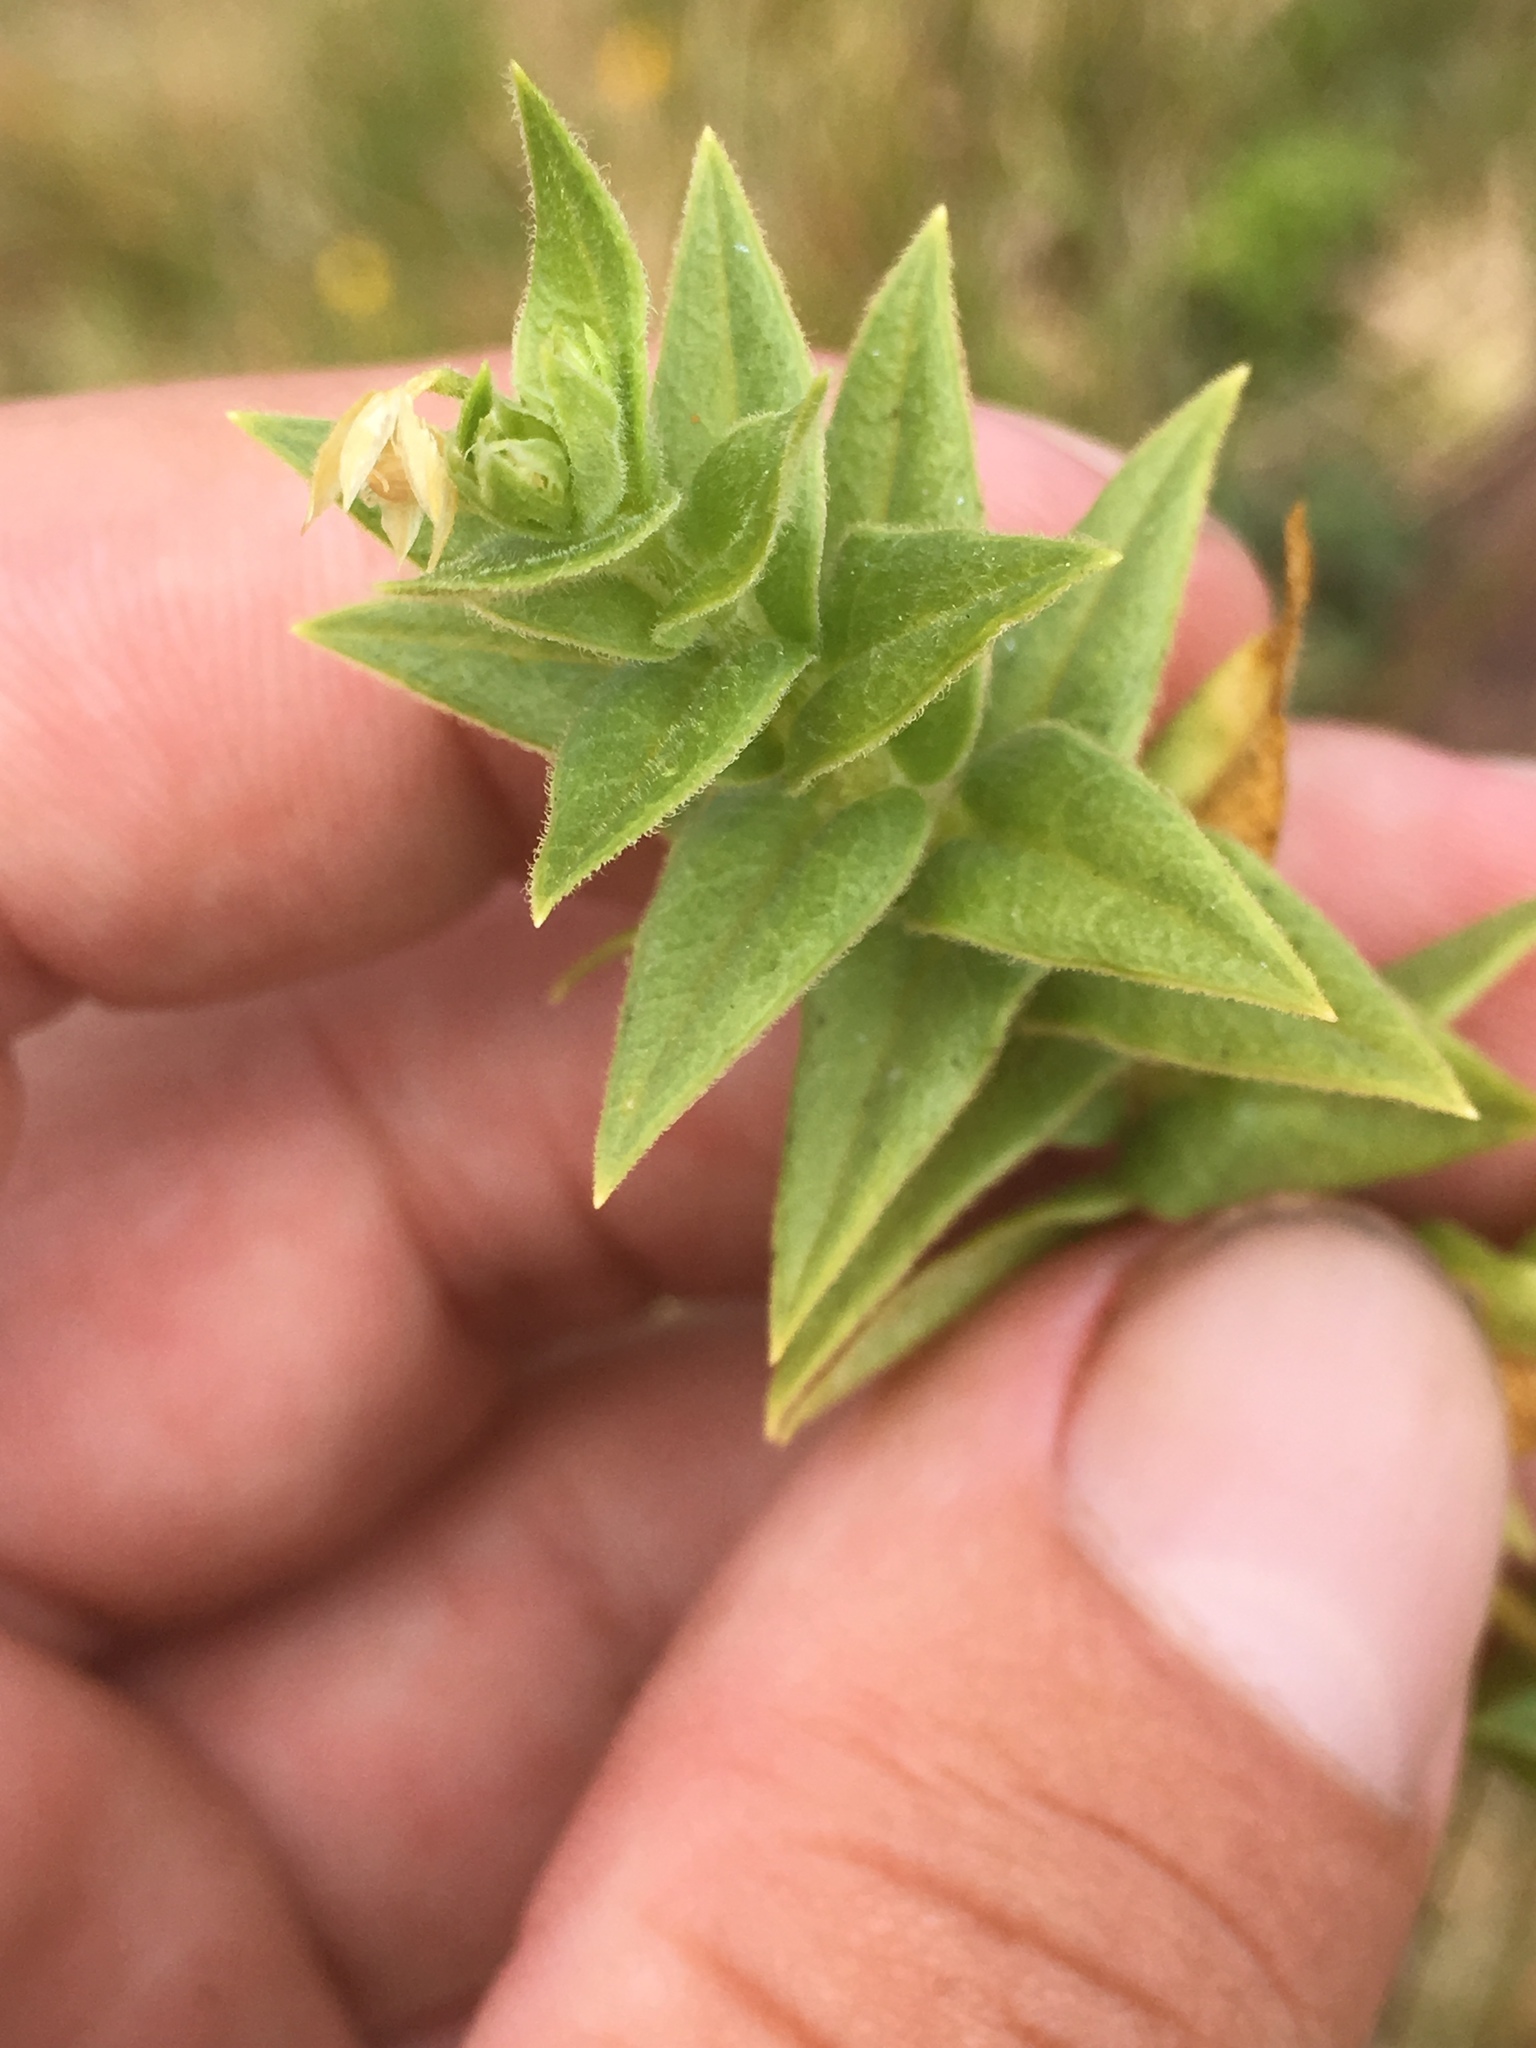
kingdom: Plantae
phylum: Tracheophyta
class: Magnoliopsida
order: Caryophyllales
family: Caryophyllaceae
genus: Stellaria
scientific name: Stellaria littoralis
